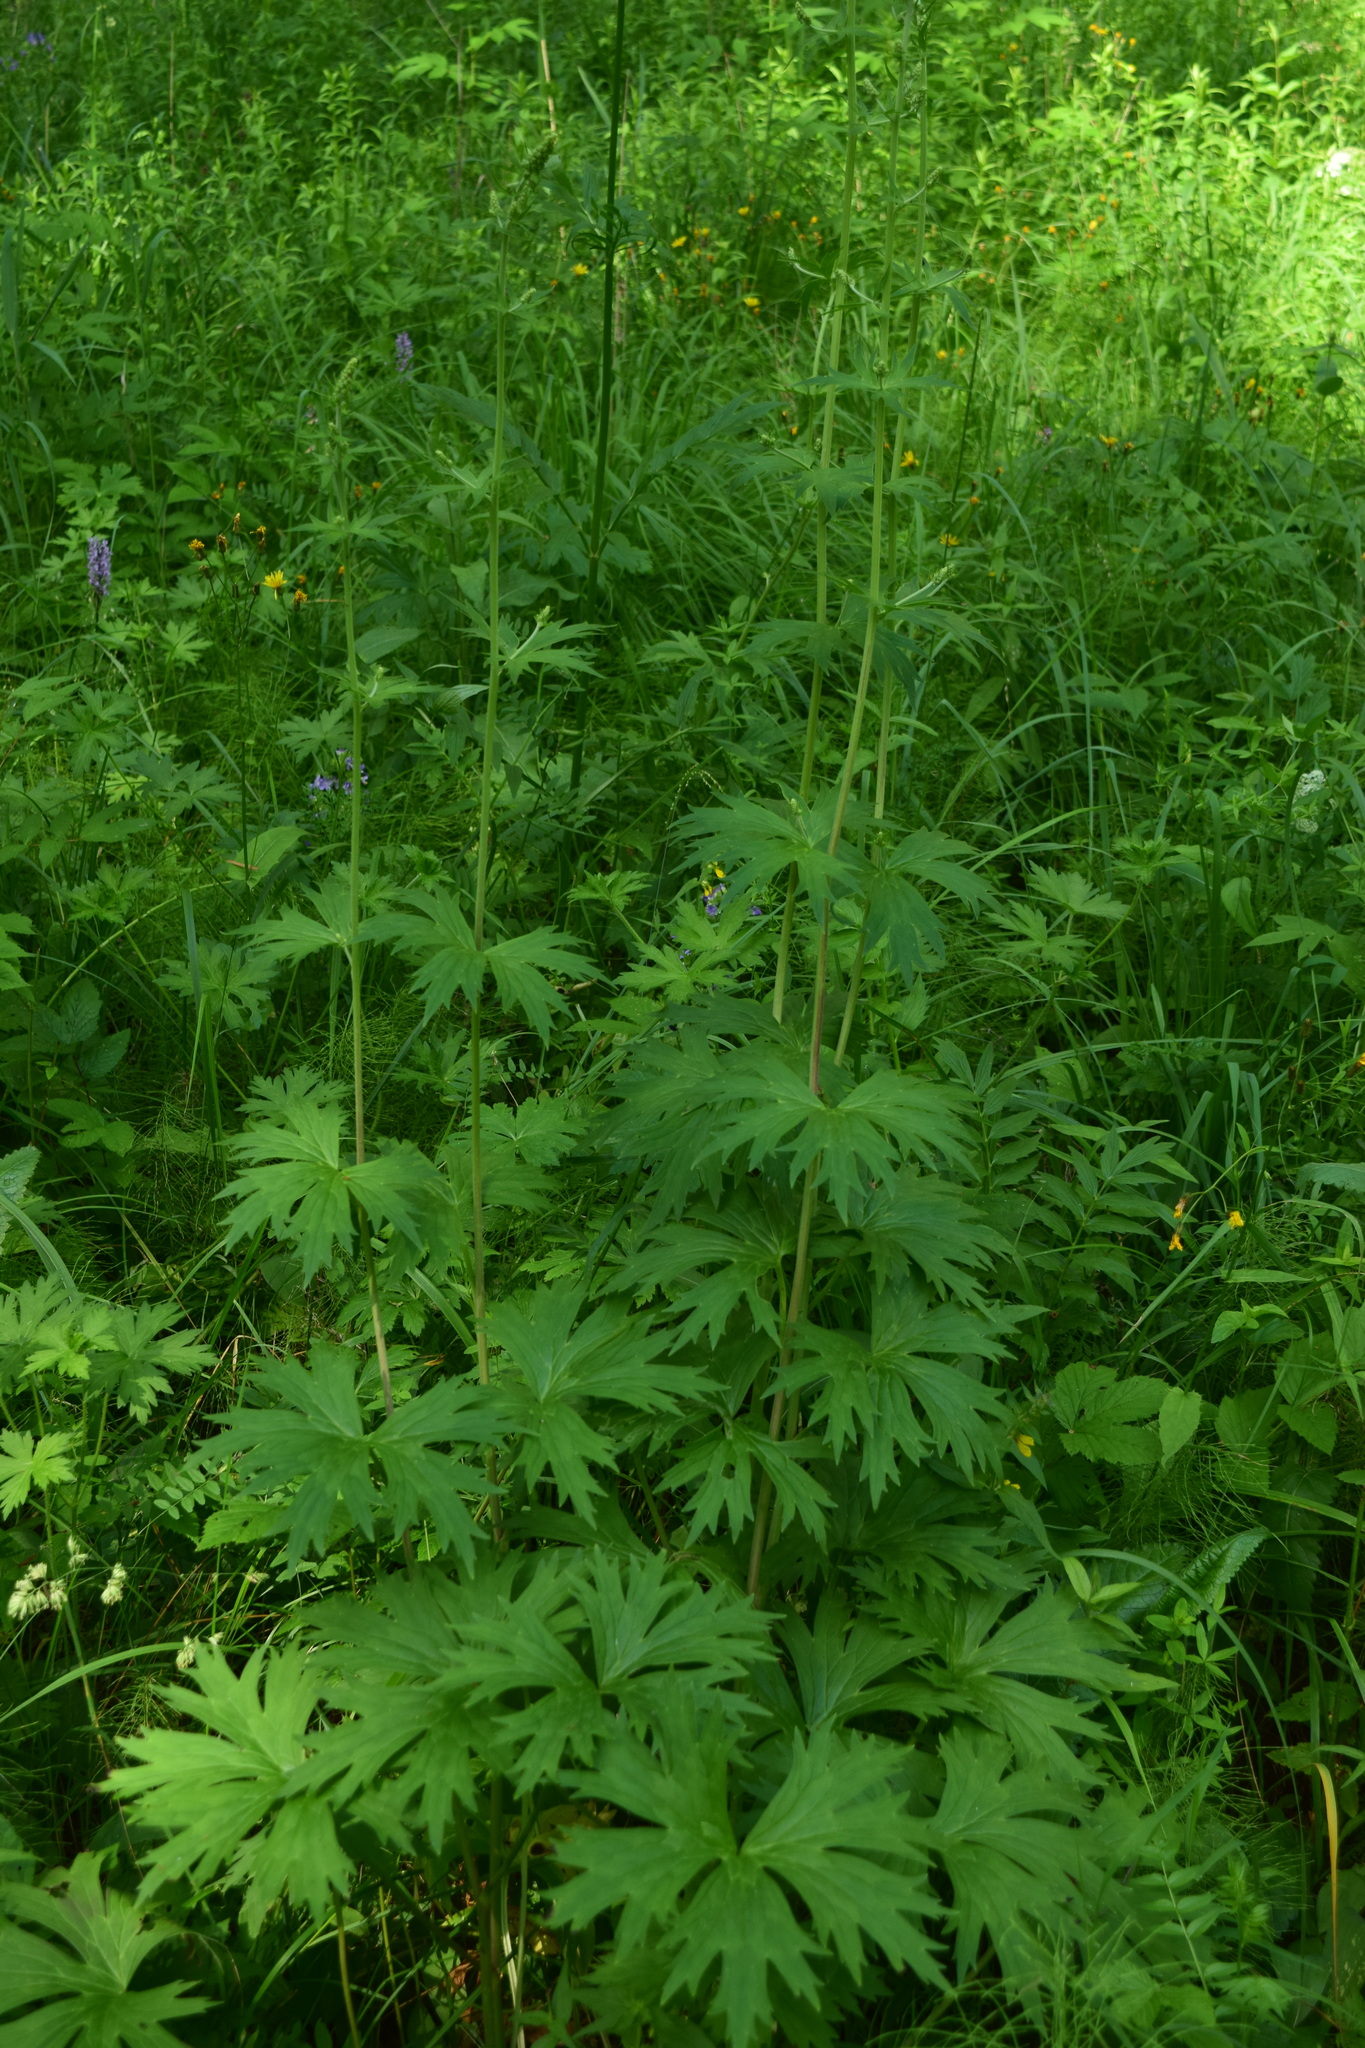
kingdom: Plantae
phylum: Tracheophyta
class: Magnoliopsida
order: Ranunculales
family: Ranunculaceae
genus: Aconitum
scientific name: Aconitum lasiostomum
